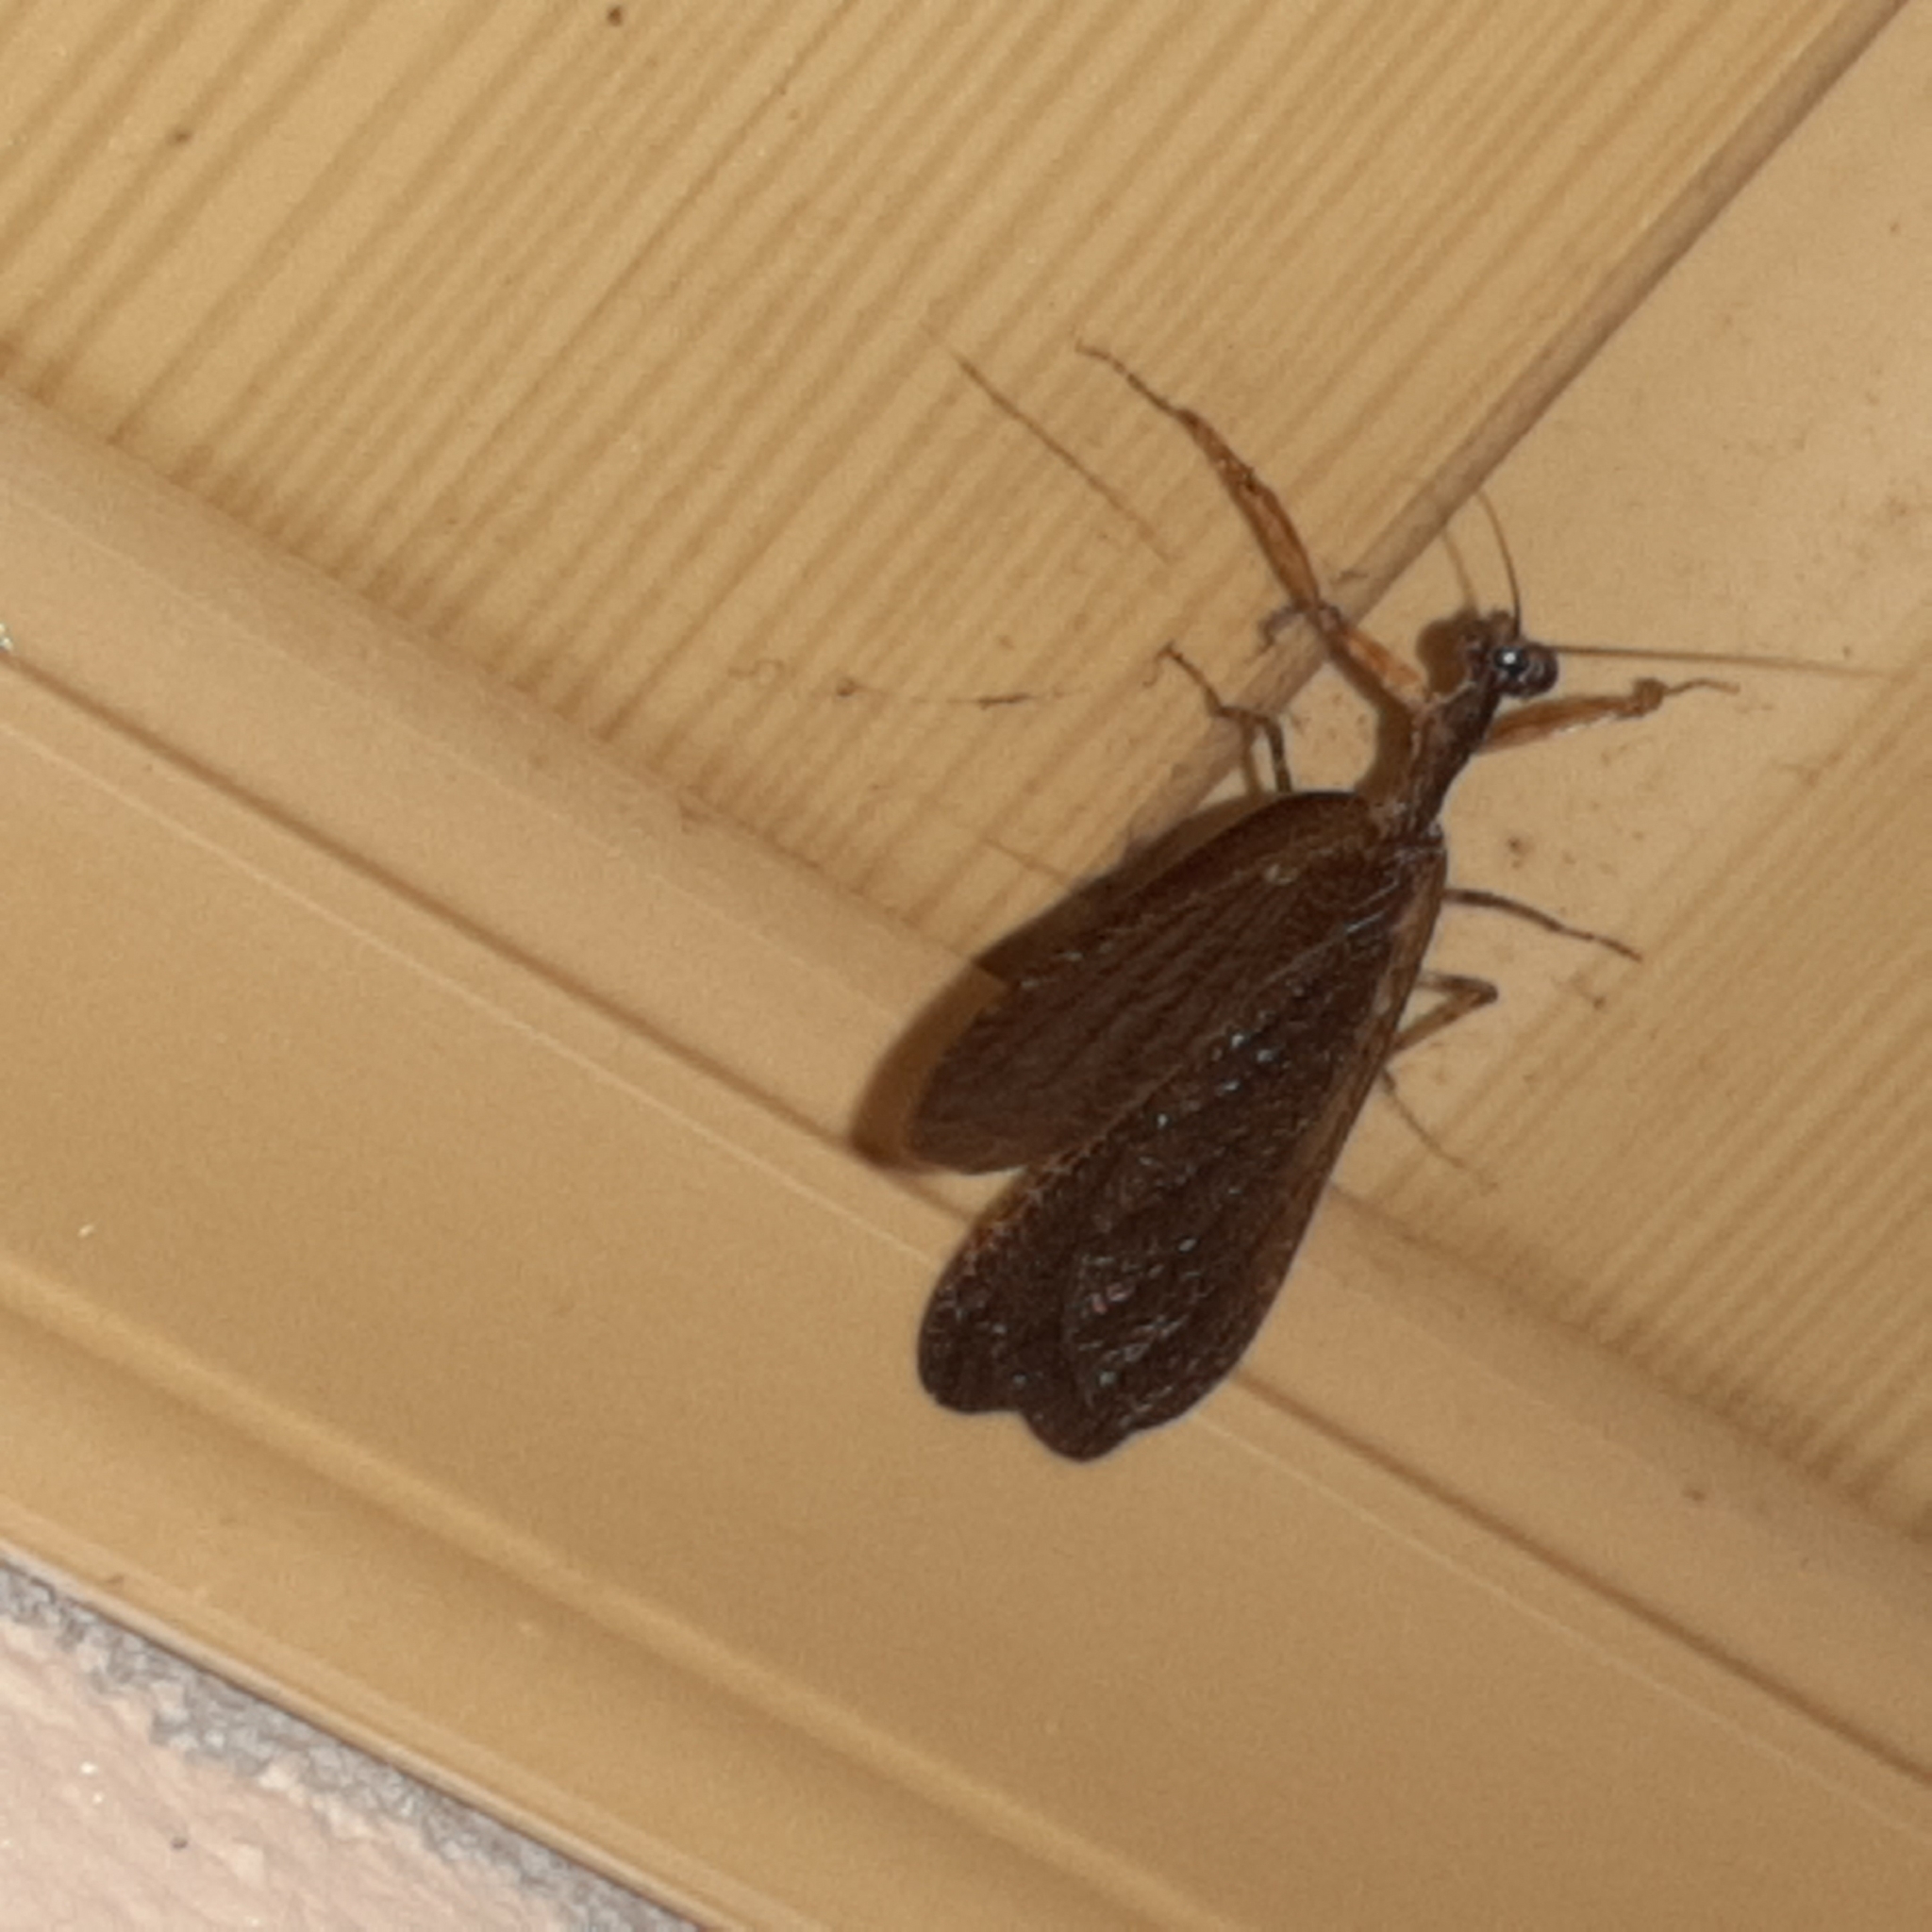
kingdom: Animalia
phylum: Arthropoda
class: Insecta
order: Mantodea
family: Thespidae
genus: Pseudomiopteryx
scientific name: Pseudomiopteryx infuscata
